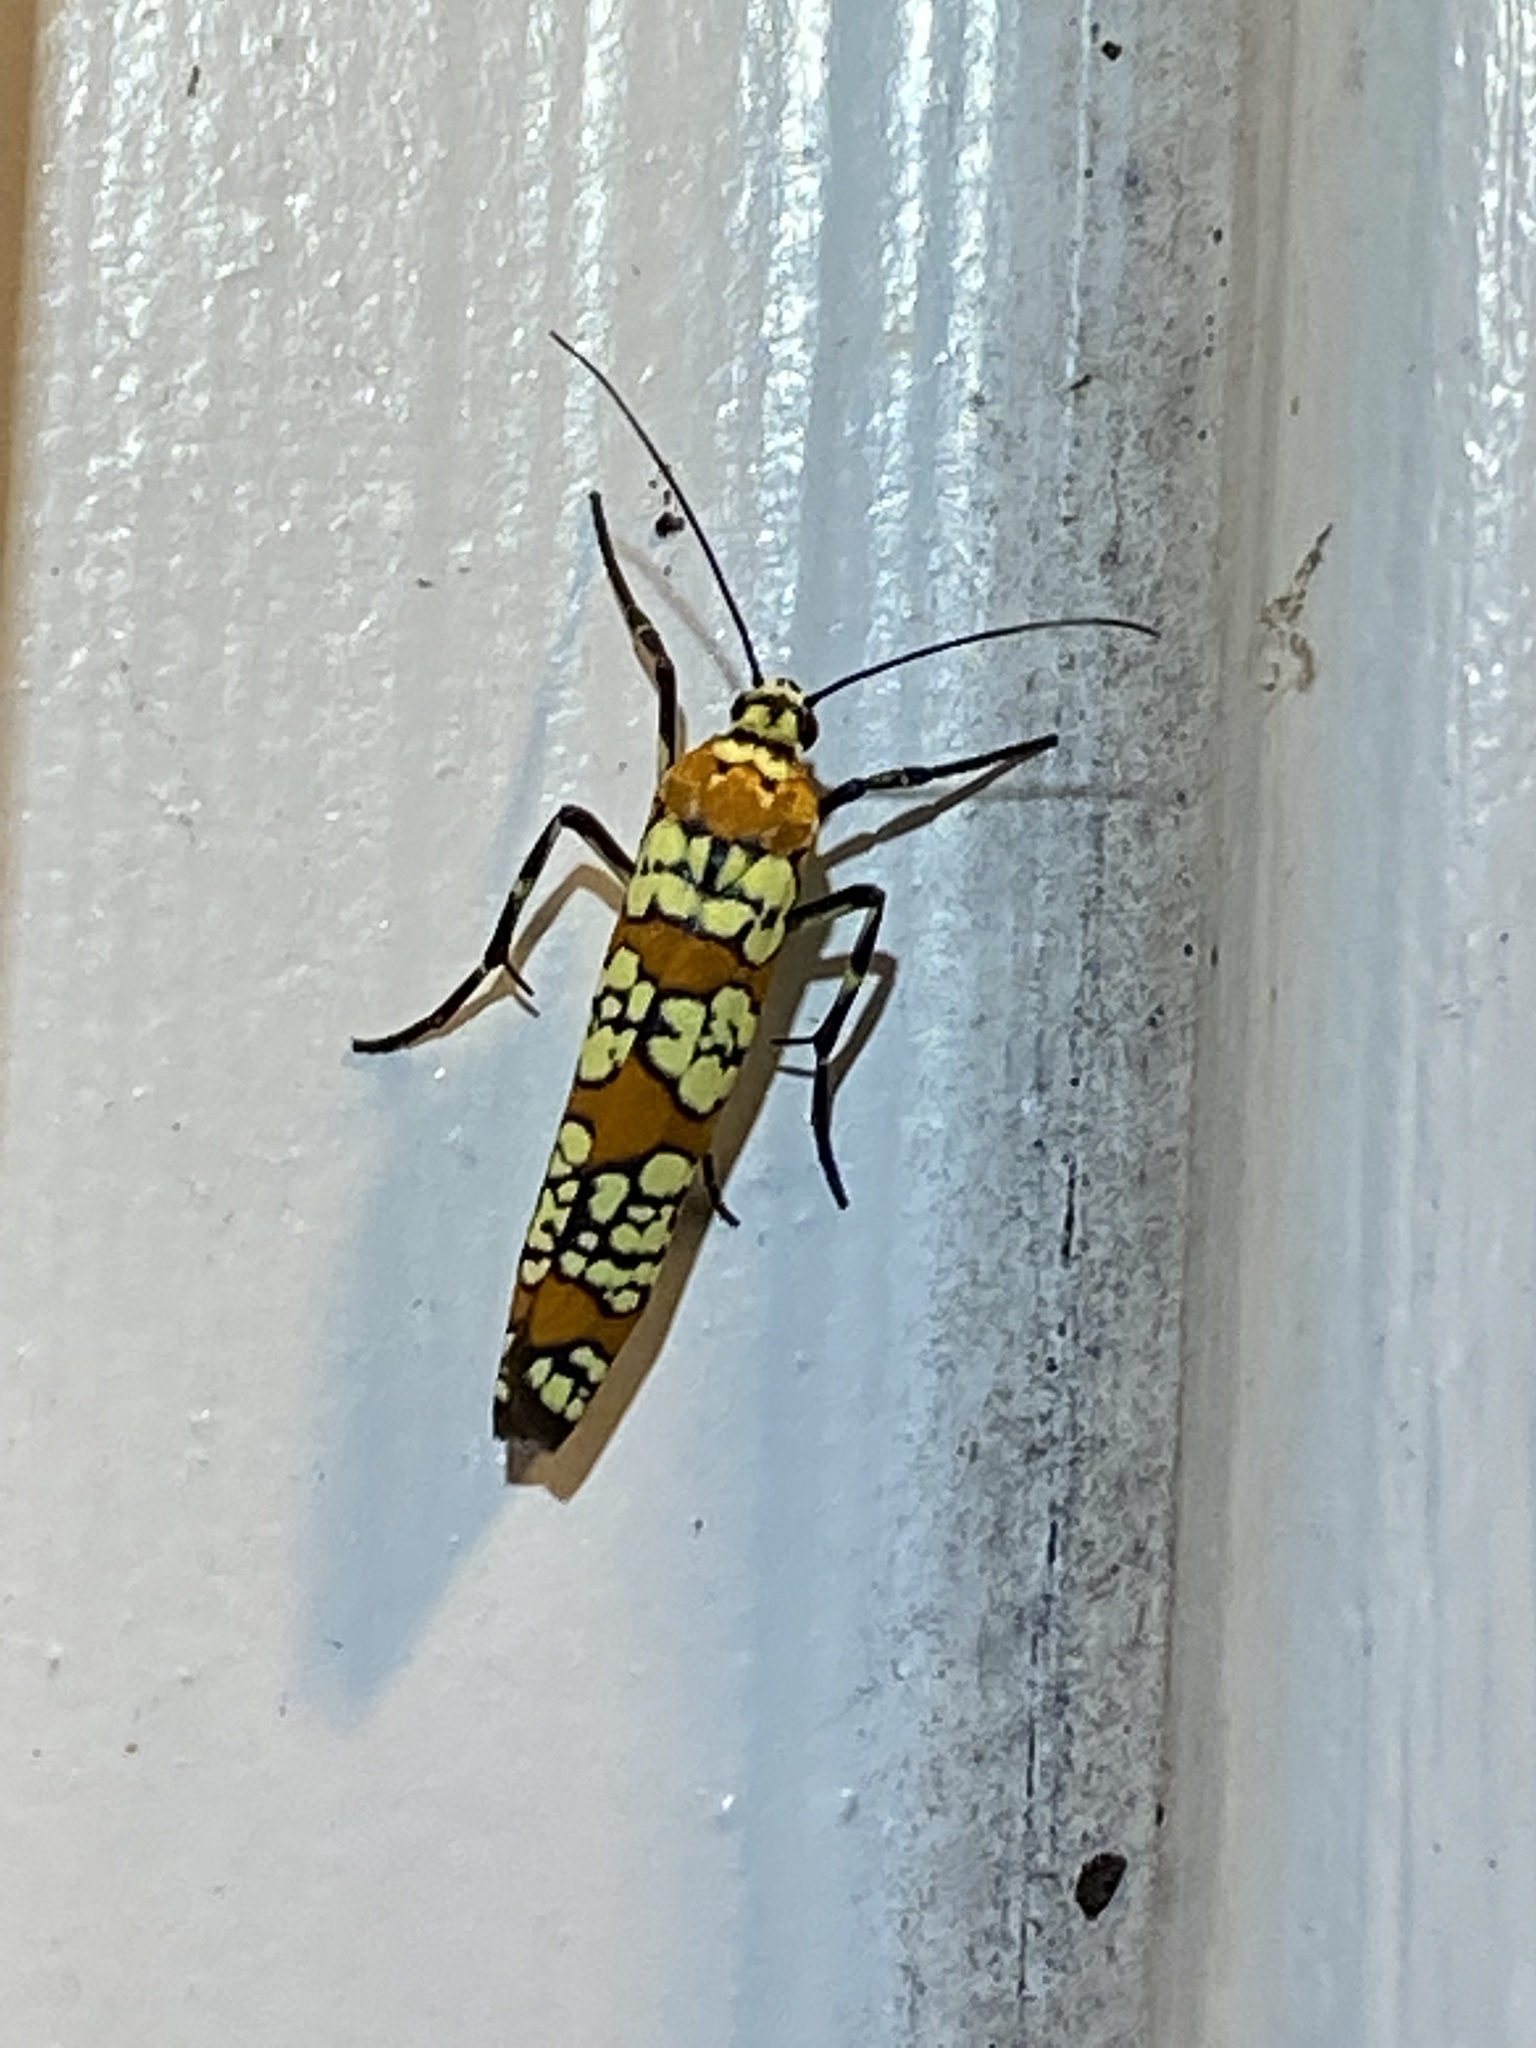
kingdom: Animalia
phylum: Arthropoda
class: Insecta
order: Lepidoptera
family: Attevidae
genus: Atteva
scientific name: Atteva punctella
